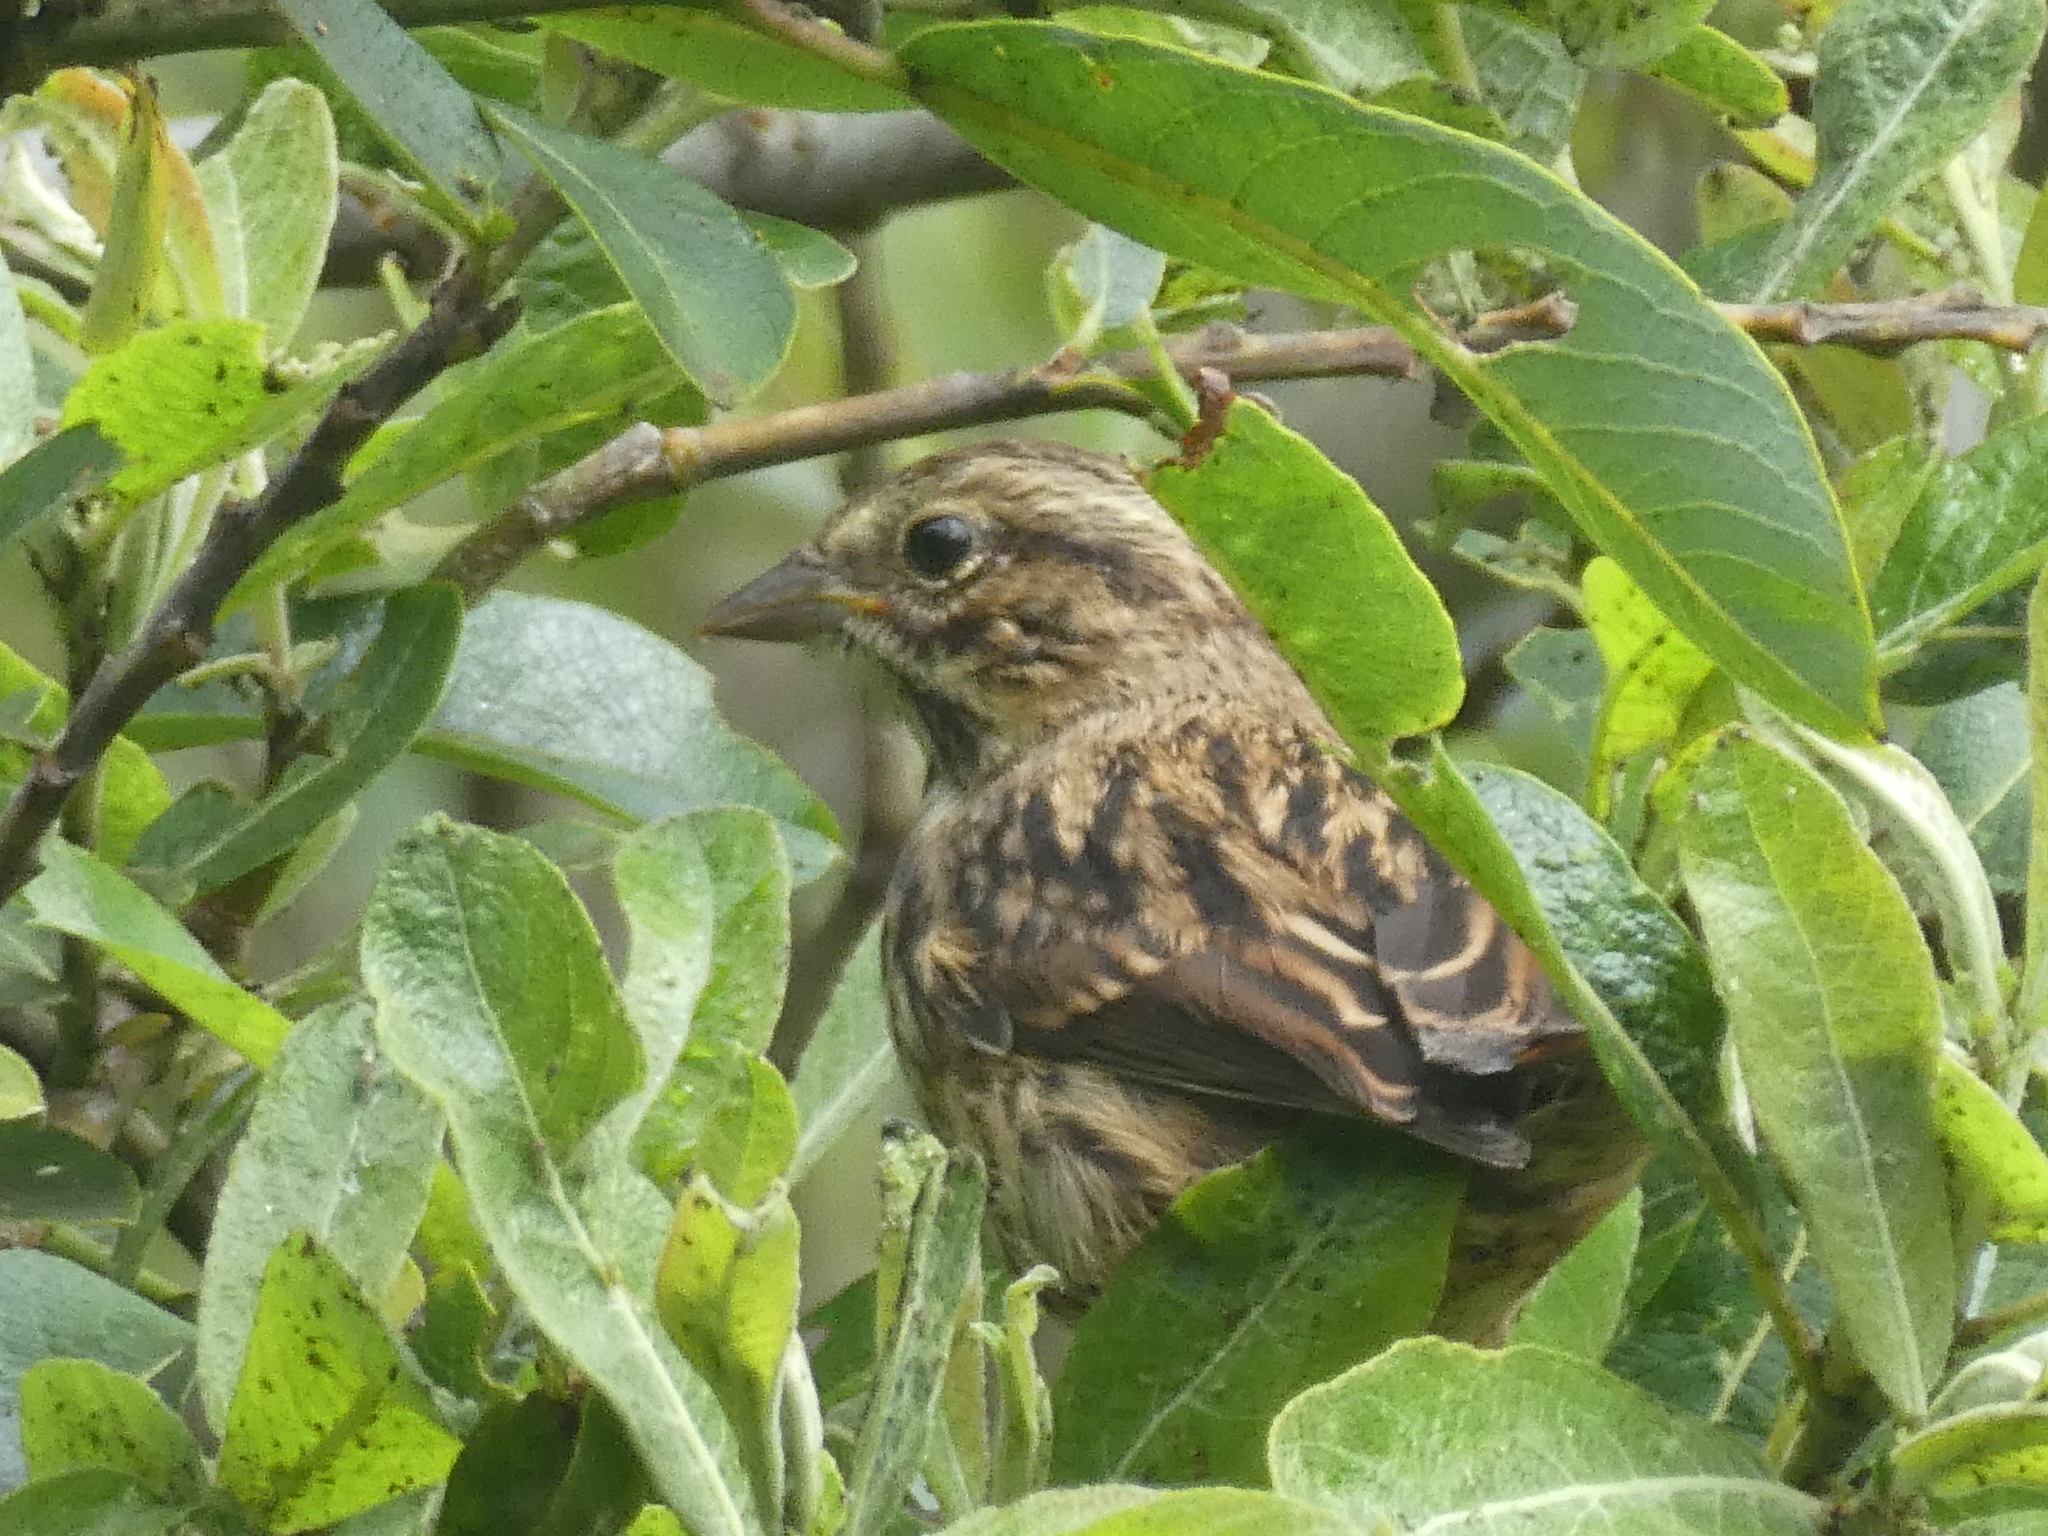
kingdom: Animalia
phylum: Chordata
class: Aves
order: Passeriformes
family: Passerellidae
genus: Melospiza
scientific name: Melospiza melodia
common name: Song sparrow
